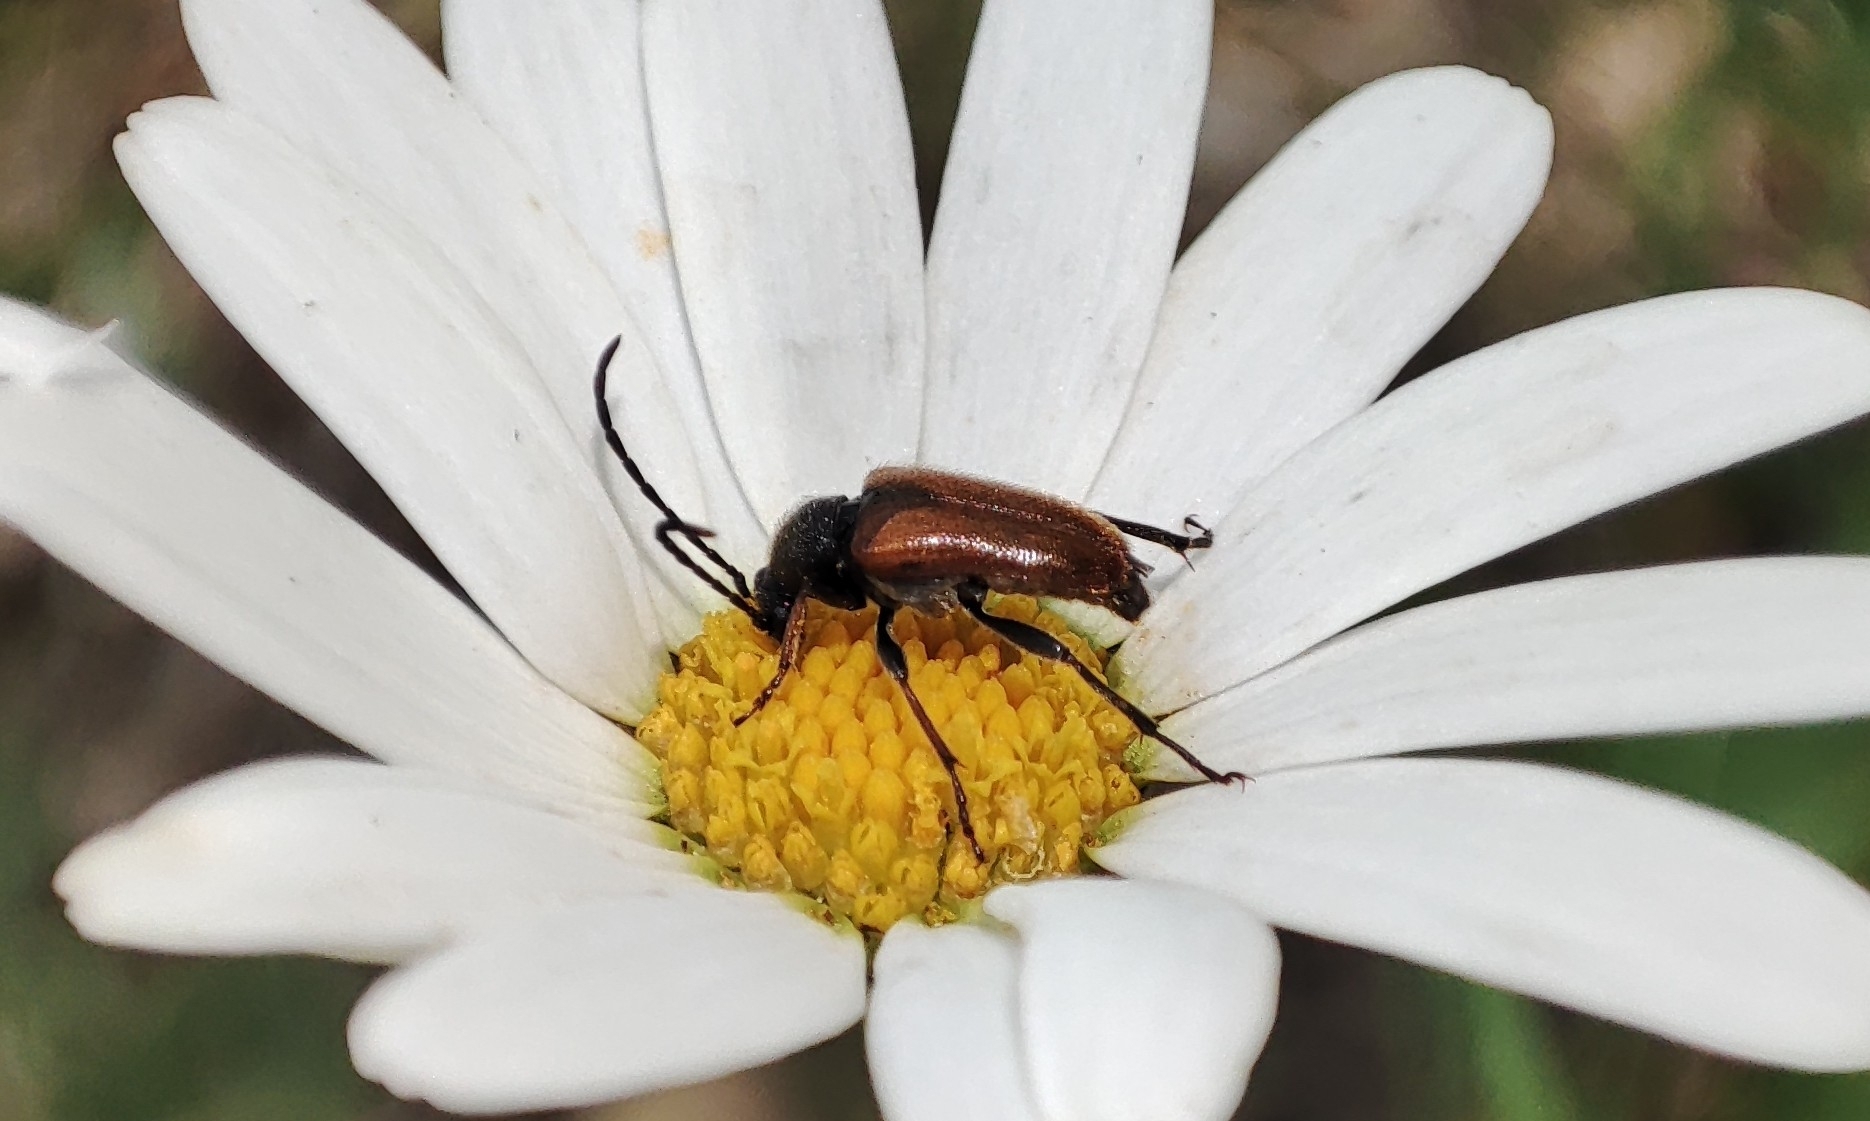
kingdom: Animalia
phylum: Arthropoda
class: Insecta
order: Coleoptera
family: Cerambycidae
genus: Pseudovadonia
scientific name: Pseudovadonia livida
